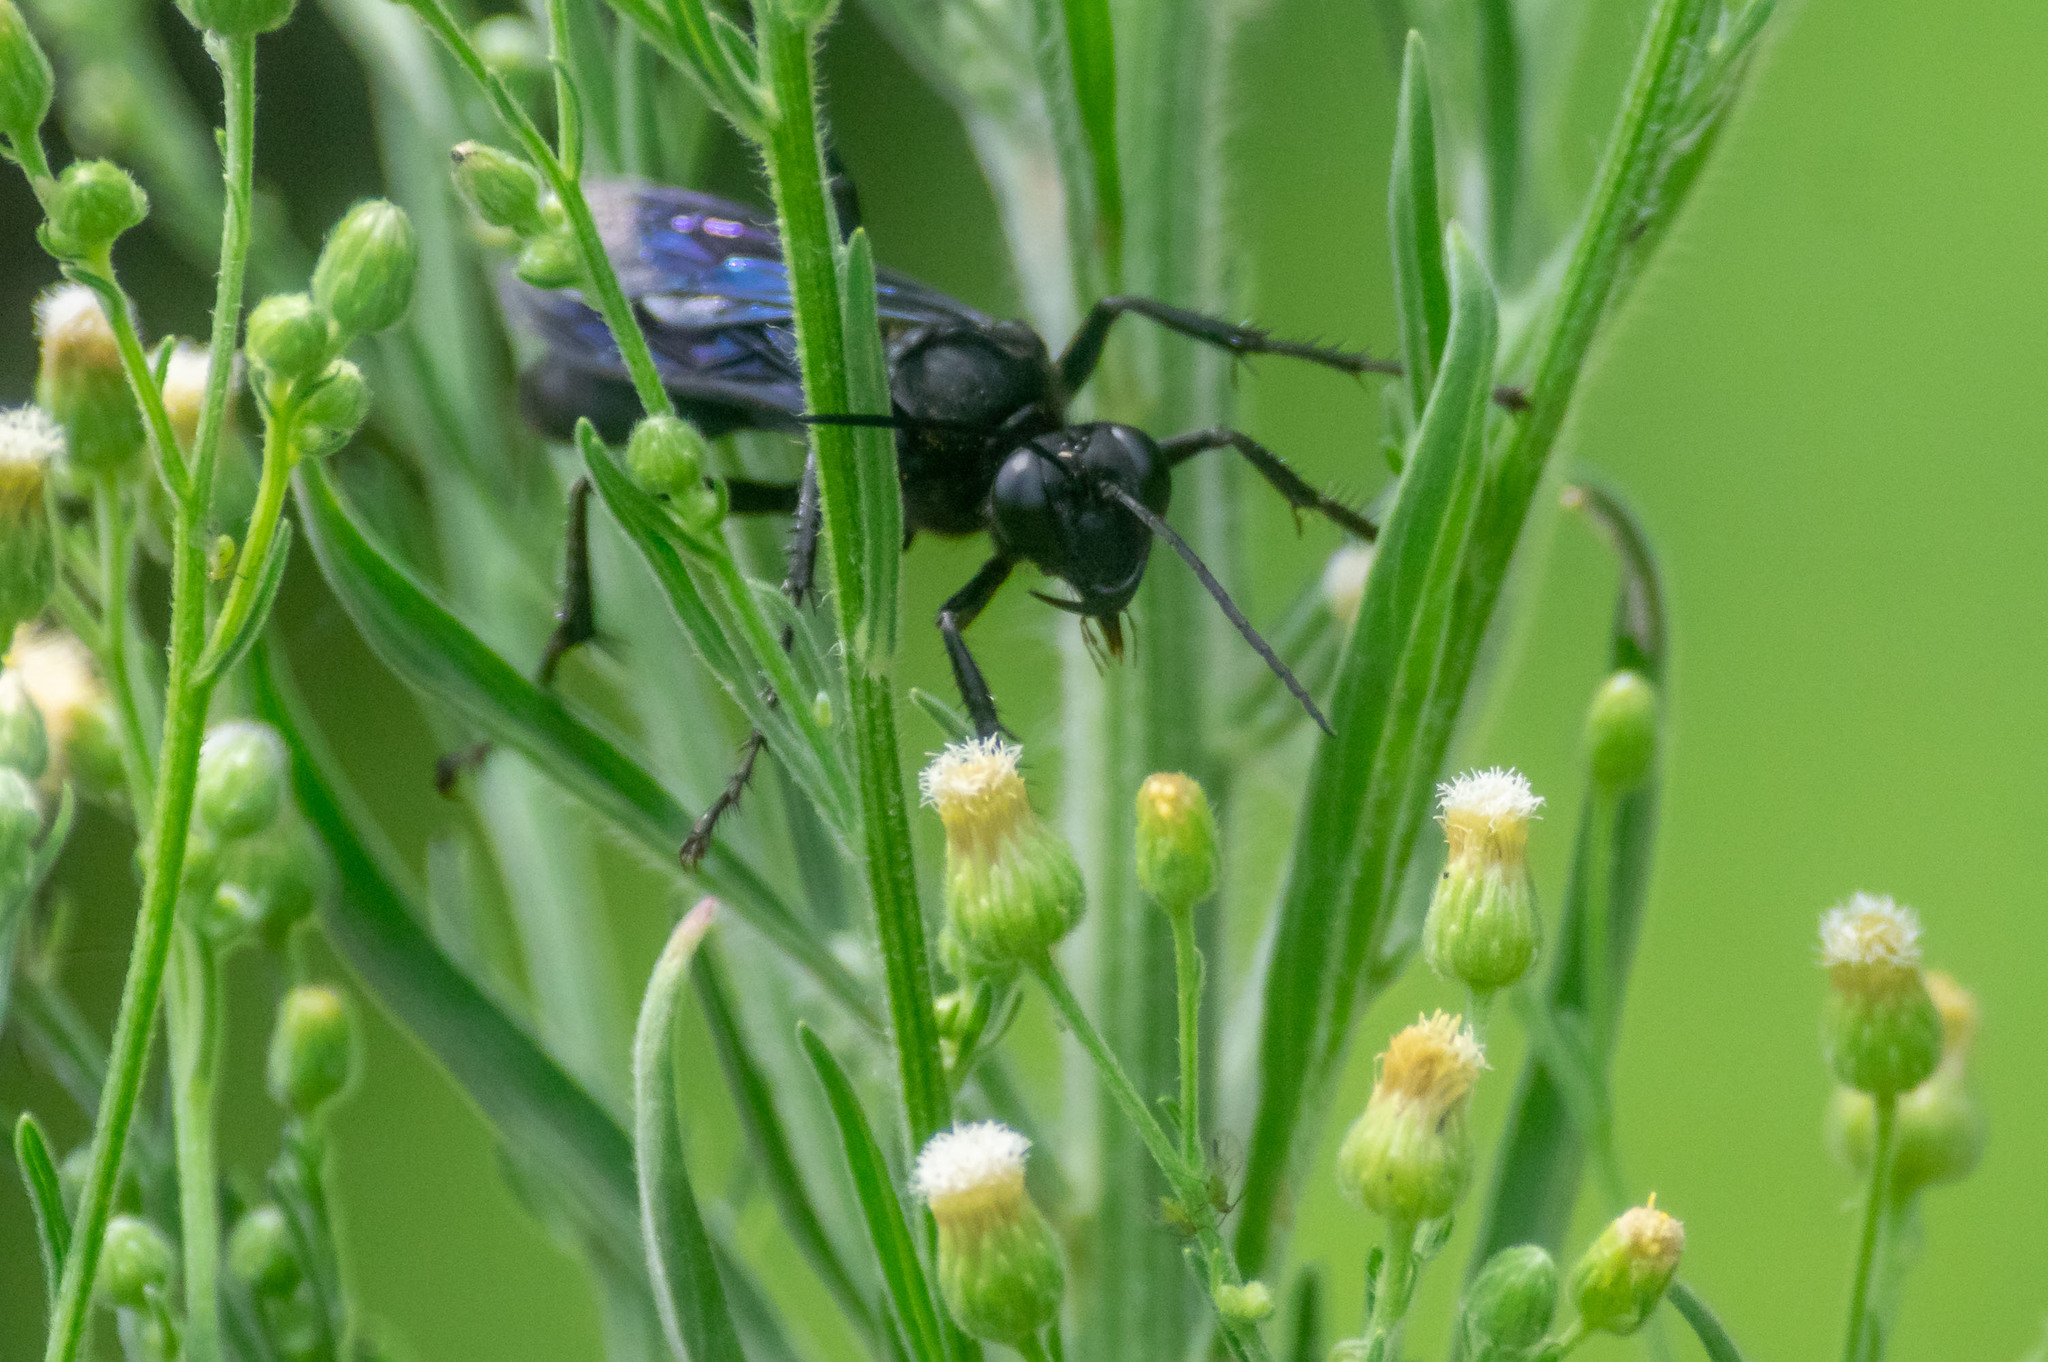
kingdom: Animalia
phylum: Arthropoda
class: Insecta
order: Hymenoptera
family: Sphecidae
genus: Sphex
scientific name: Sphex pensylvanicus
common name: Great black digger wasp
